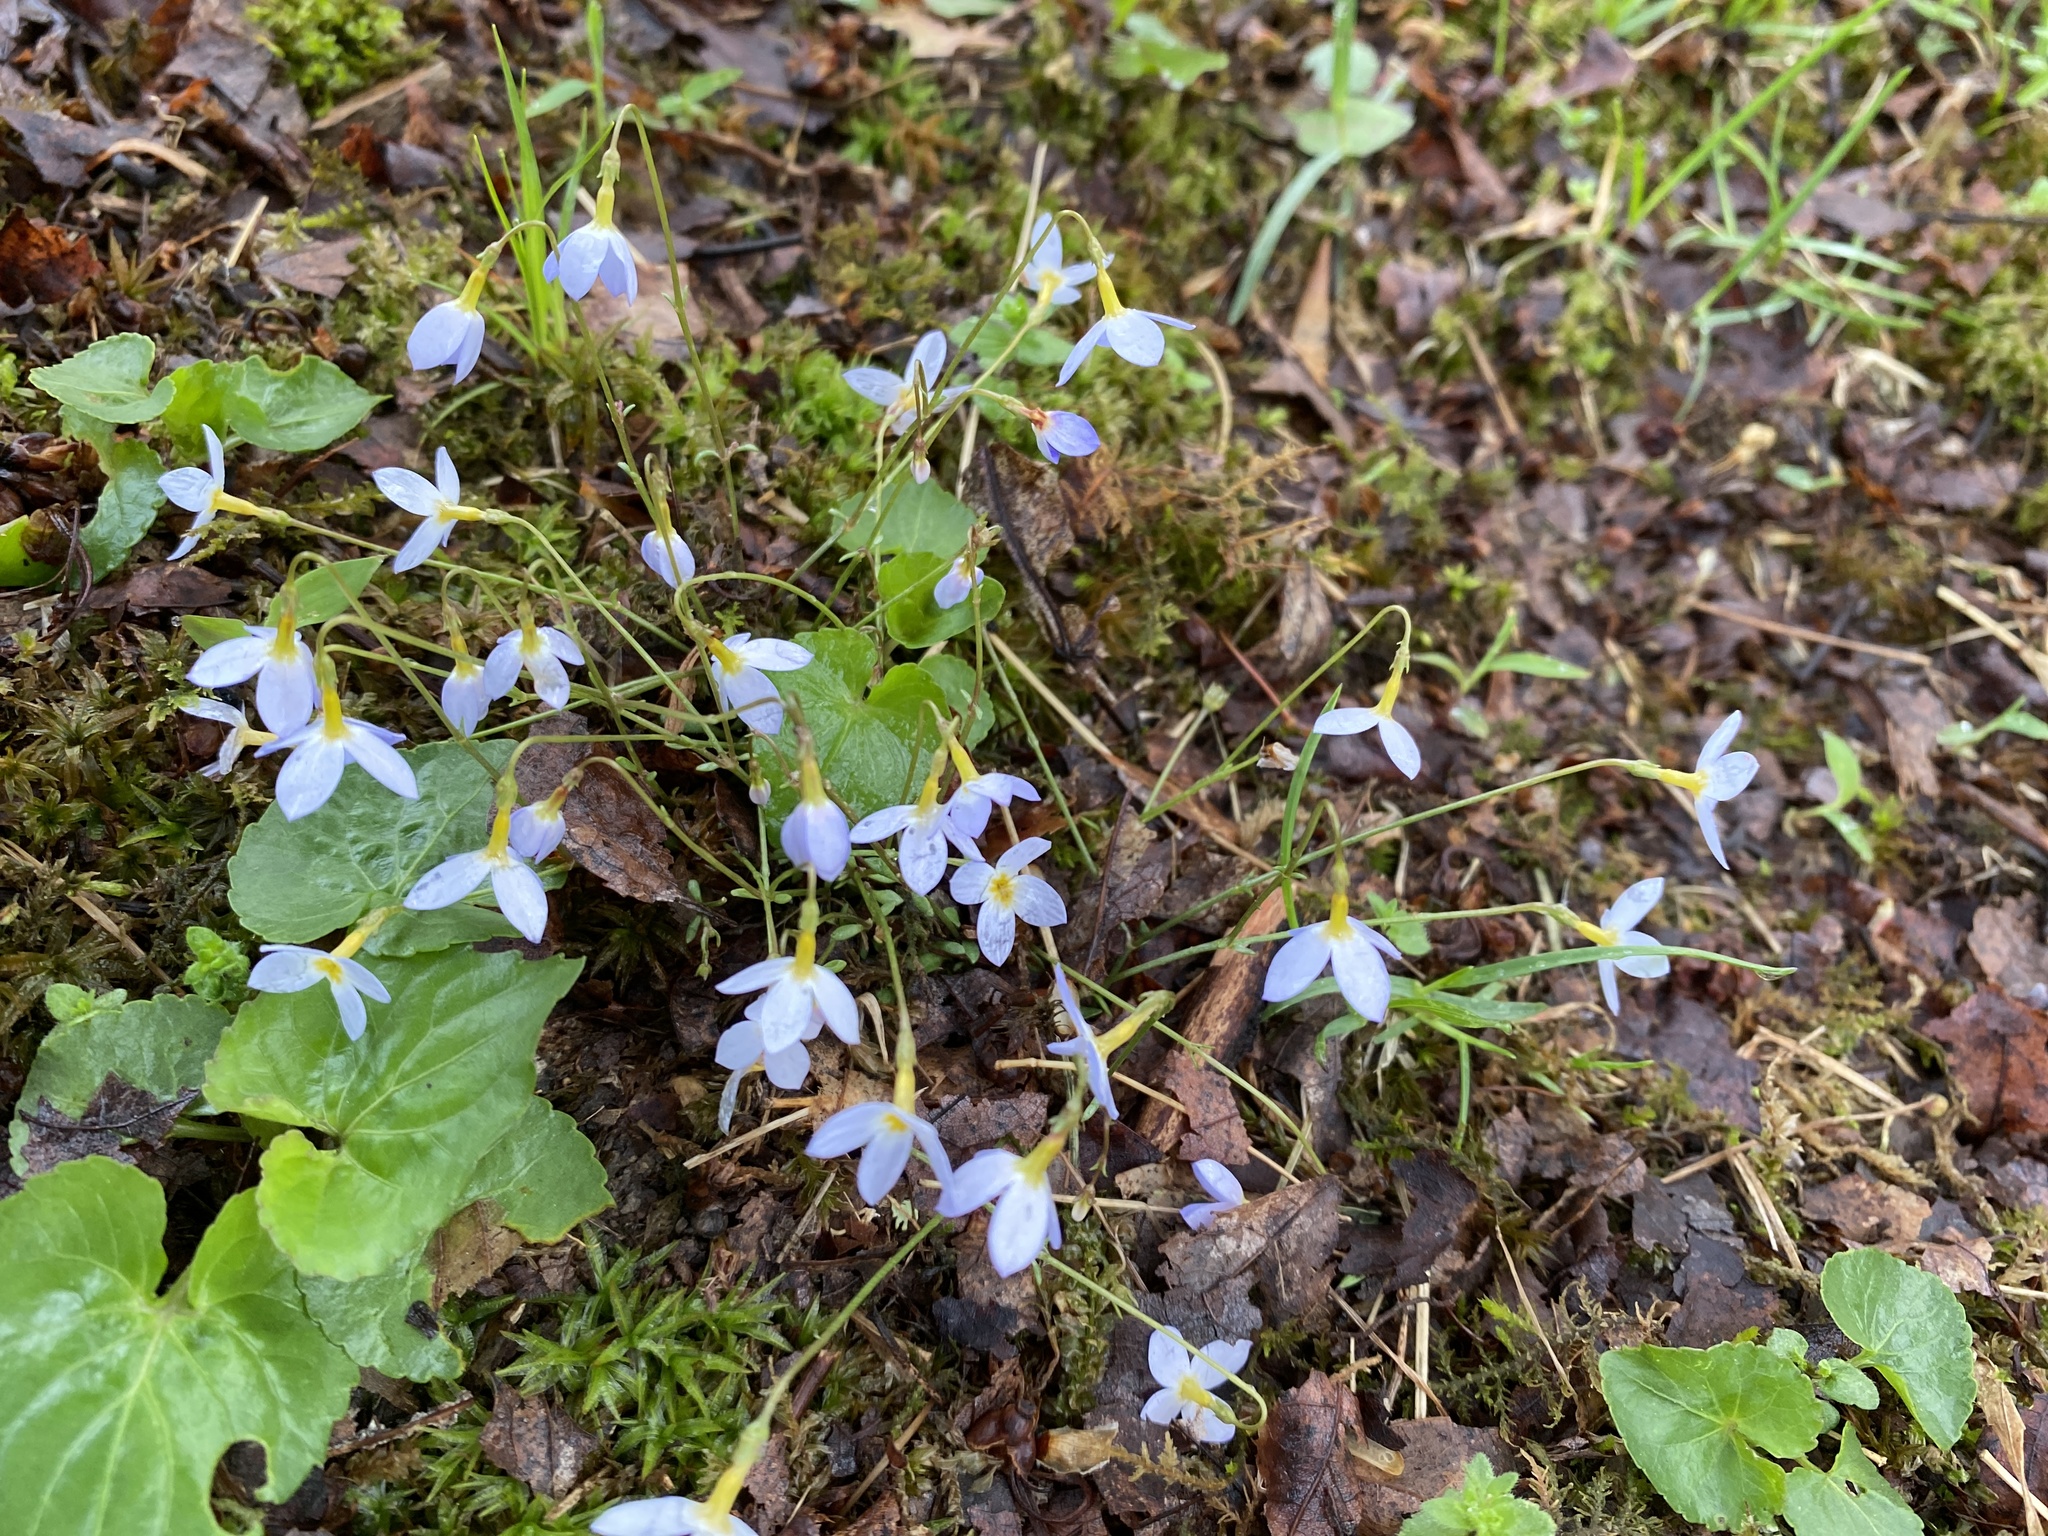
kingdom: Plantae
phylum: Tracheophyta
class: Magnoliopsida
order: Gentianales
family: Rubiaceae
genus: Houstonia
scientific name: Houstonia caerulea
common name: Bluets
